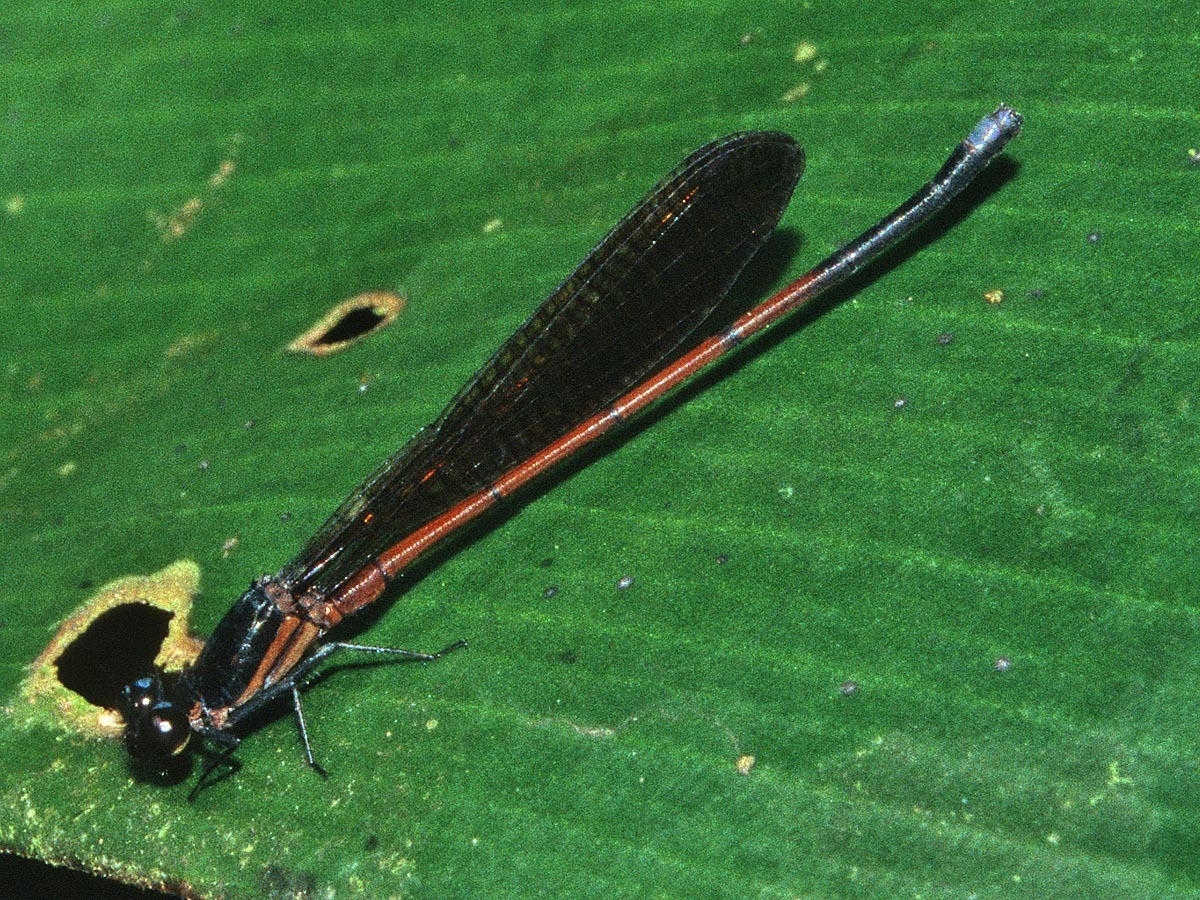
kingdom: Animalia
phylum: Arthropoda
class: Insecta
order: Odonata
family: Coenagrionidae
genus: Argia
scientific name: Argia infumata
